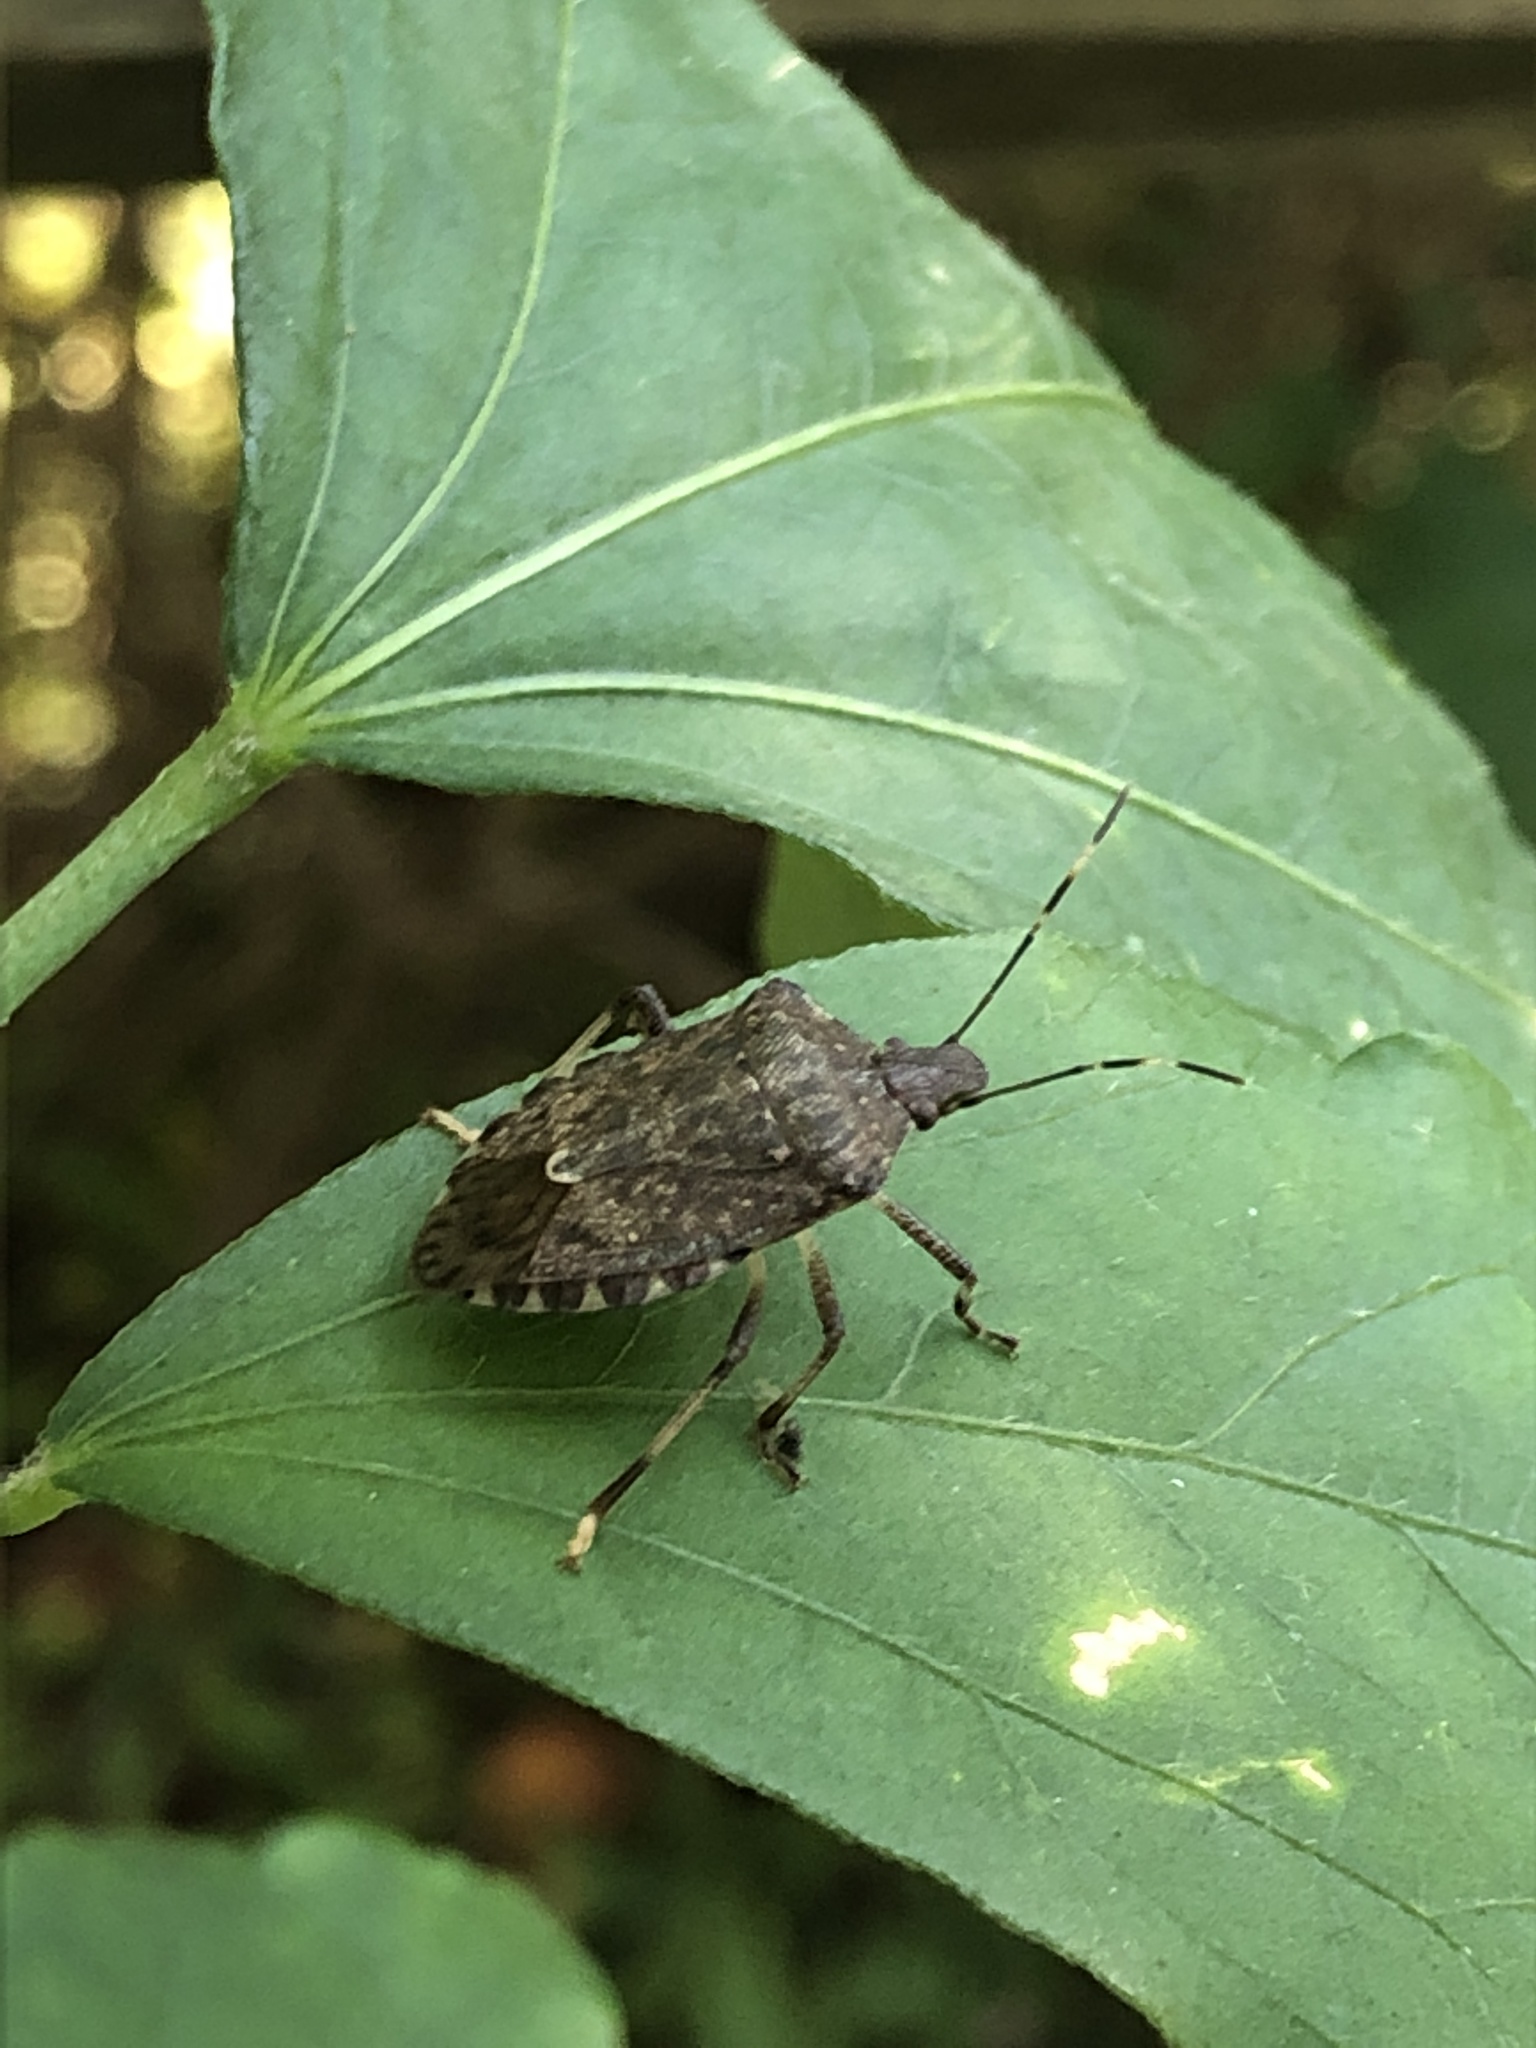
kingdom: Animalia
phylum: Arthropoda
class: Insecta
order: Hemiptera
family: Pentatomidae
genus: Halyomorpha
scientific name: Halyomorpha halys
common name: Brown marmorated stink bug
